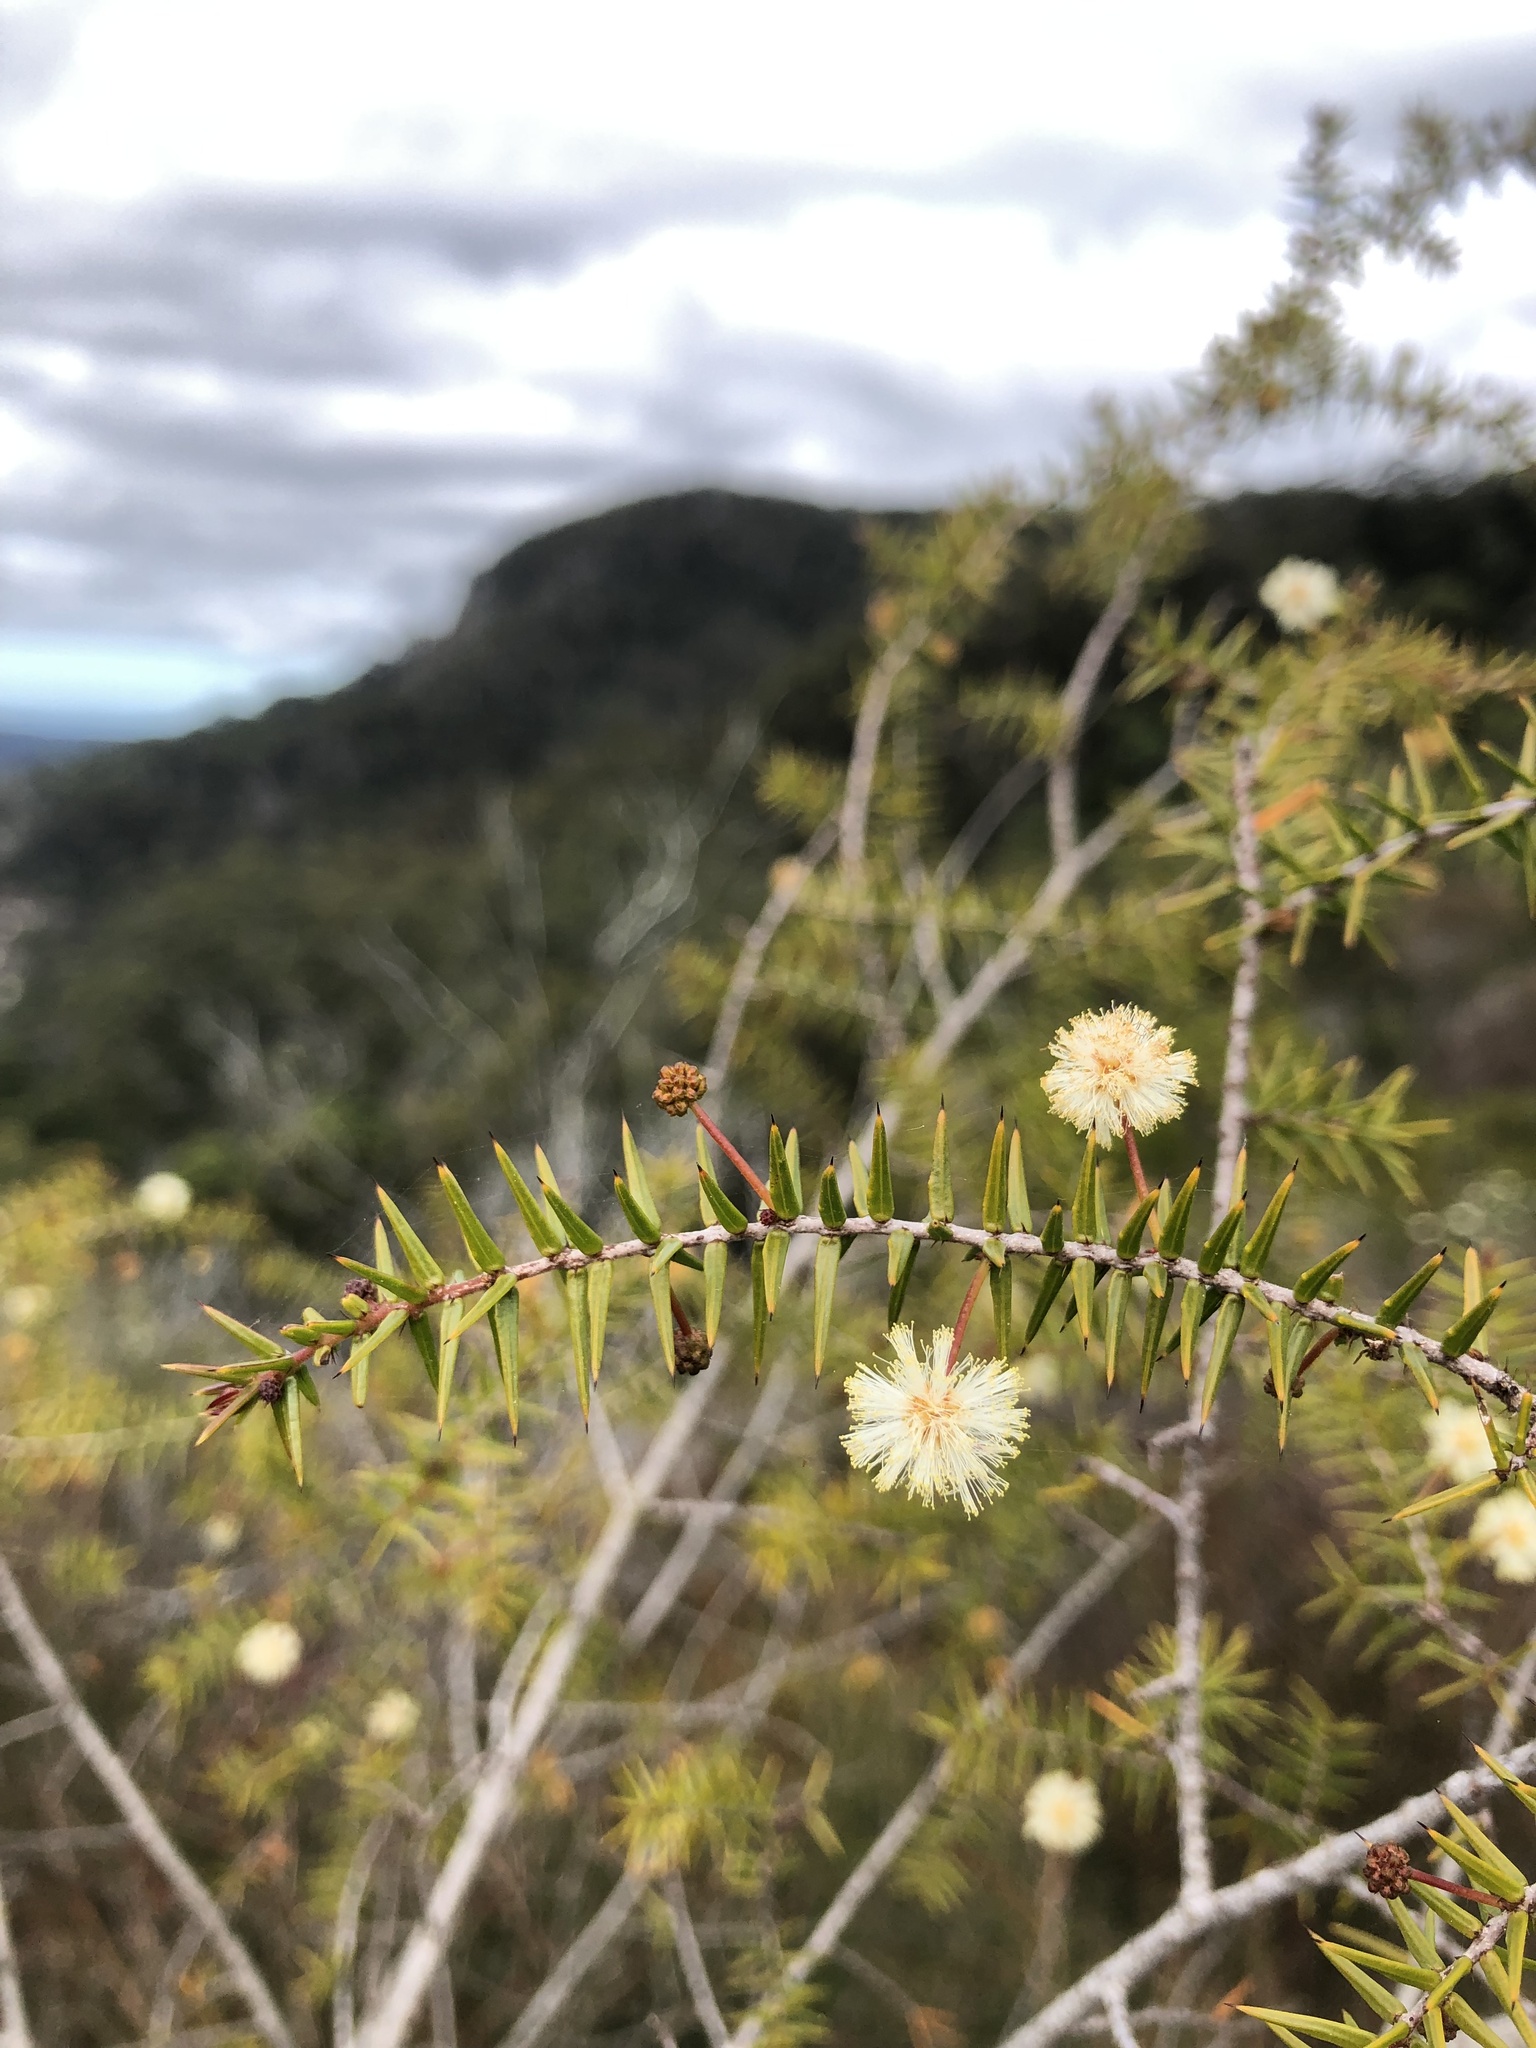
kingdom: Plantae
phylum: Tracheophyta
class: Magnoliopsida
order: Fabales
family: Fabaceae
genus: Acacia
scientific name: Acacia ulicifolia
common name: Juniper wattle
